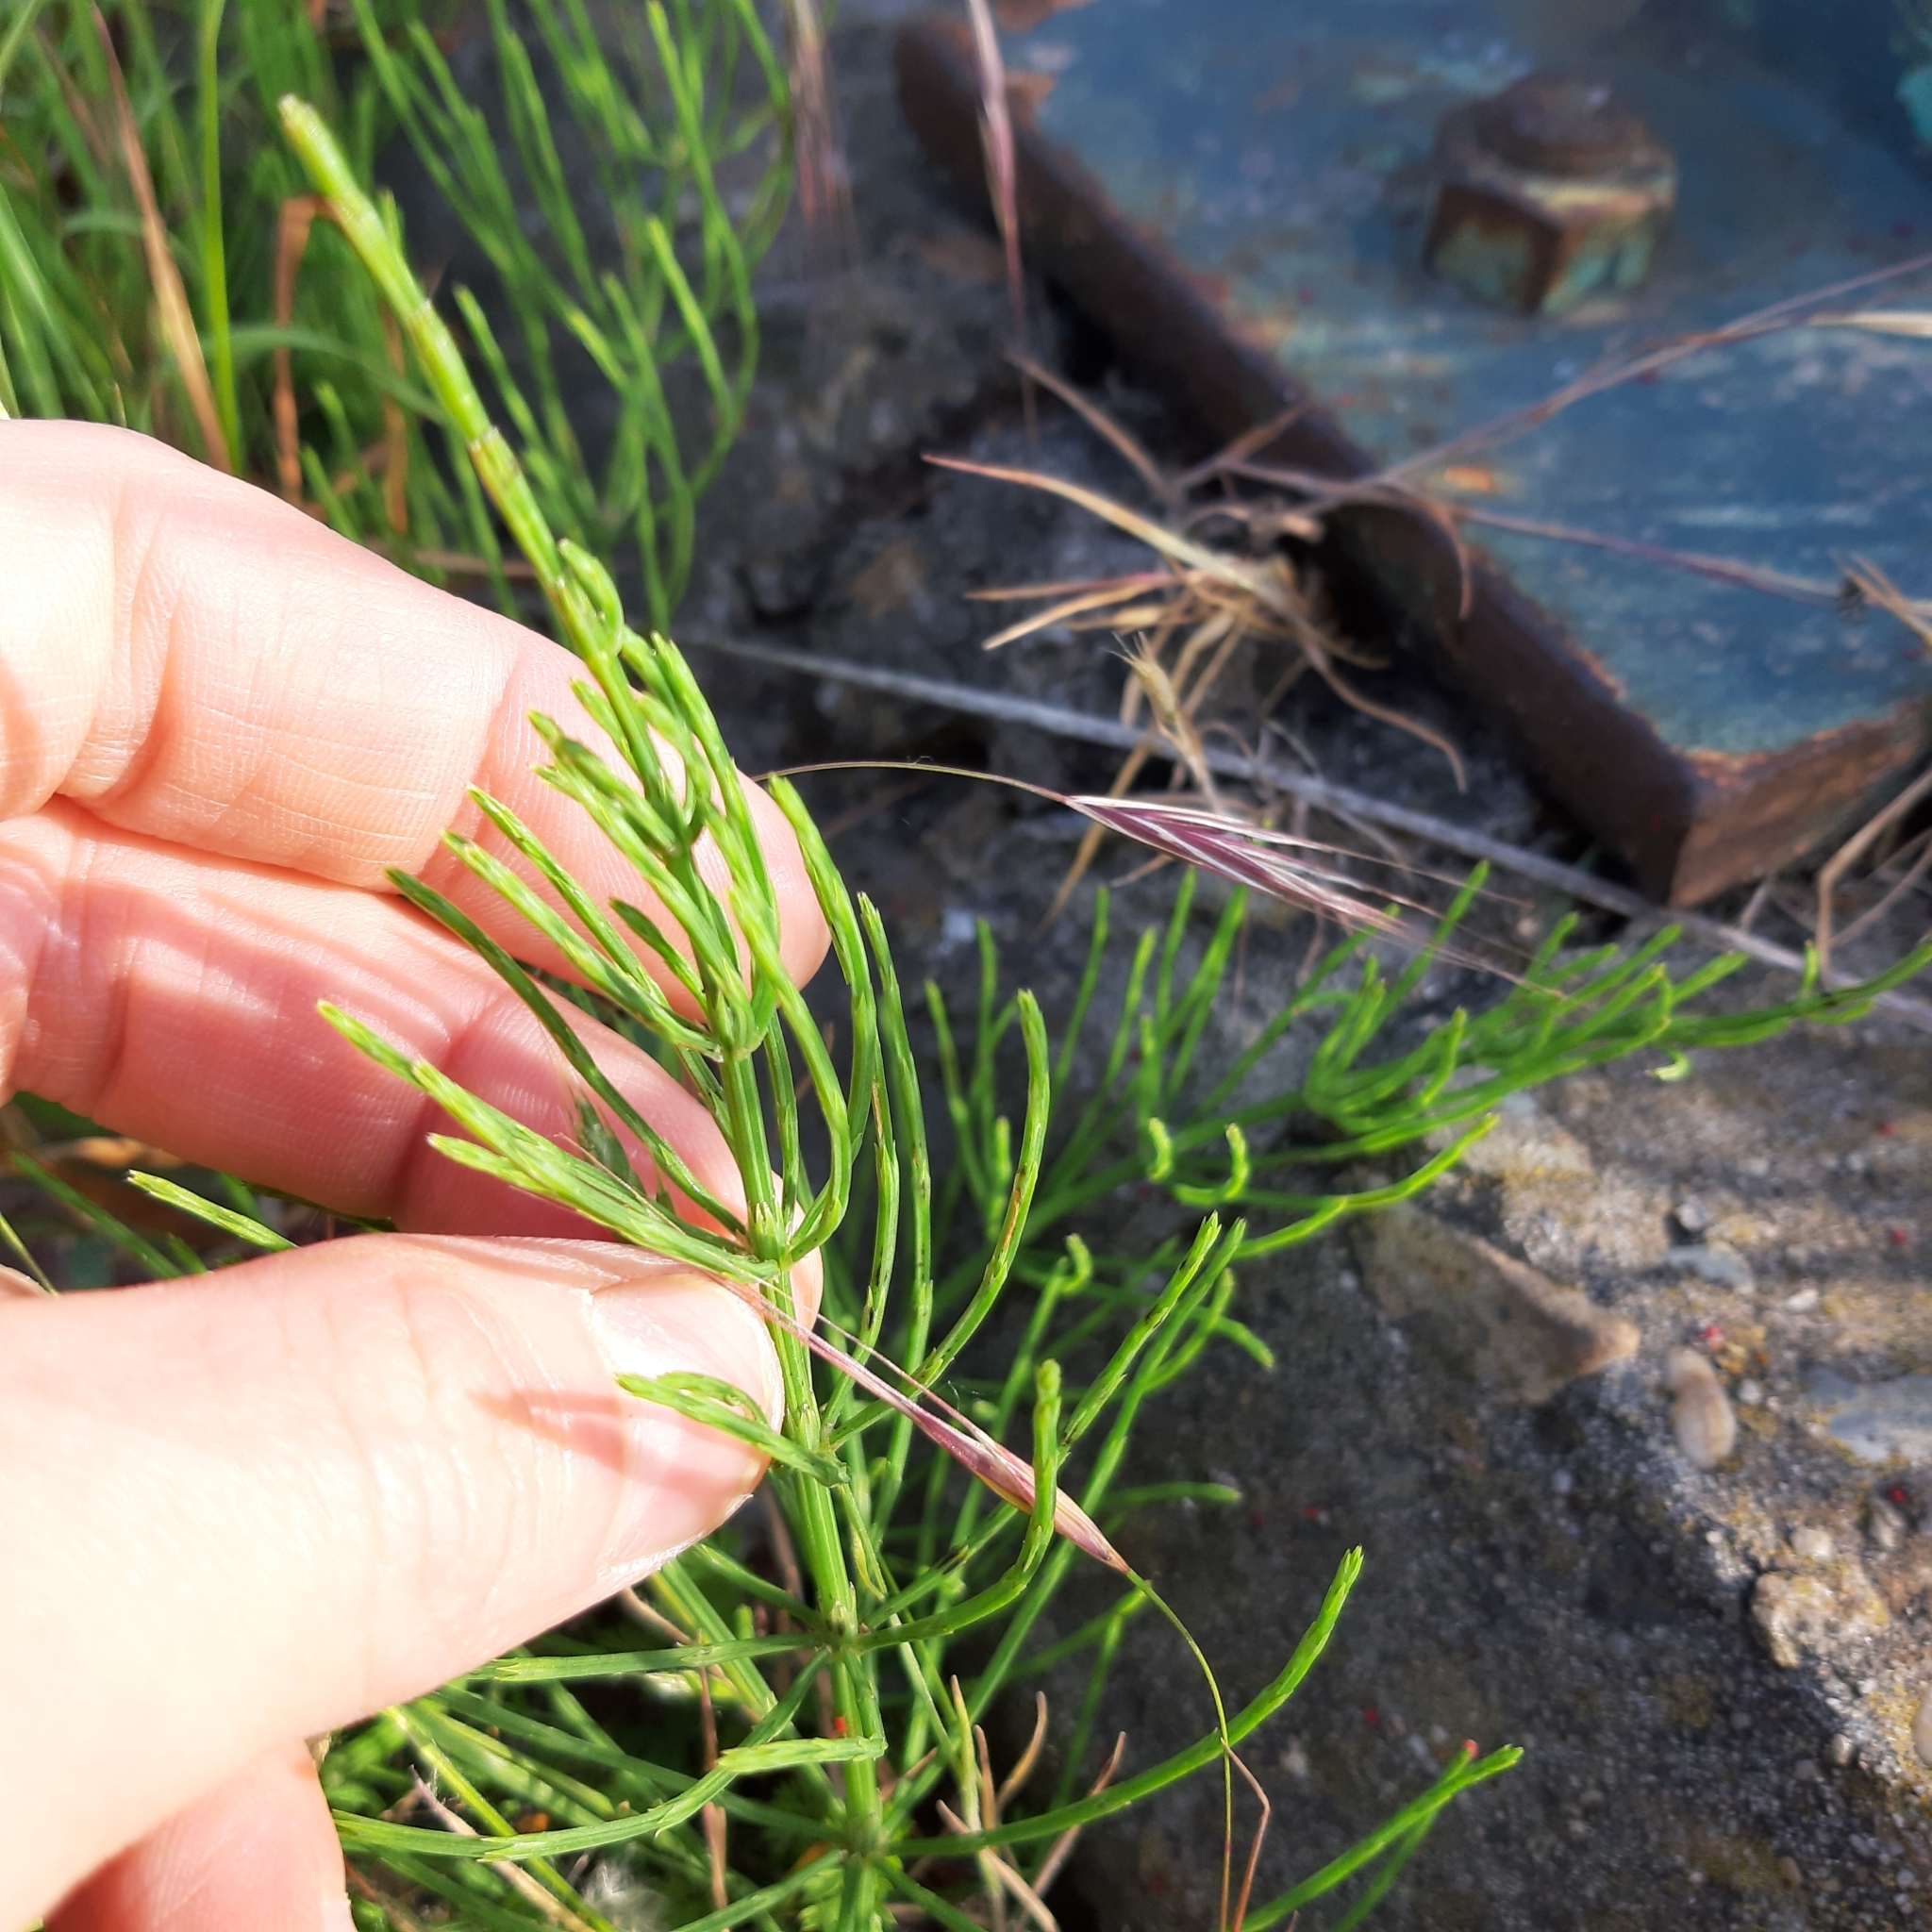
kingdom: Plantae
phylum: Tracheophyta
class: Polypodiopsida
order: Equisetales
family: Equisetaceae
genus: Equisetum
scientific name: Equisetum arvense
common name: Field horsetail
